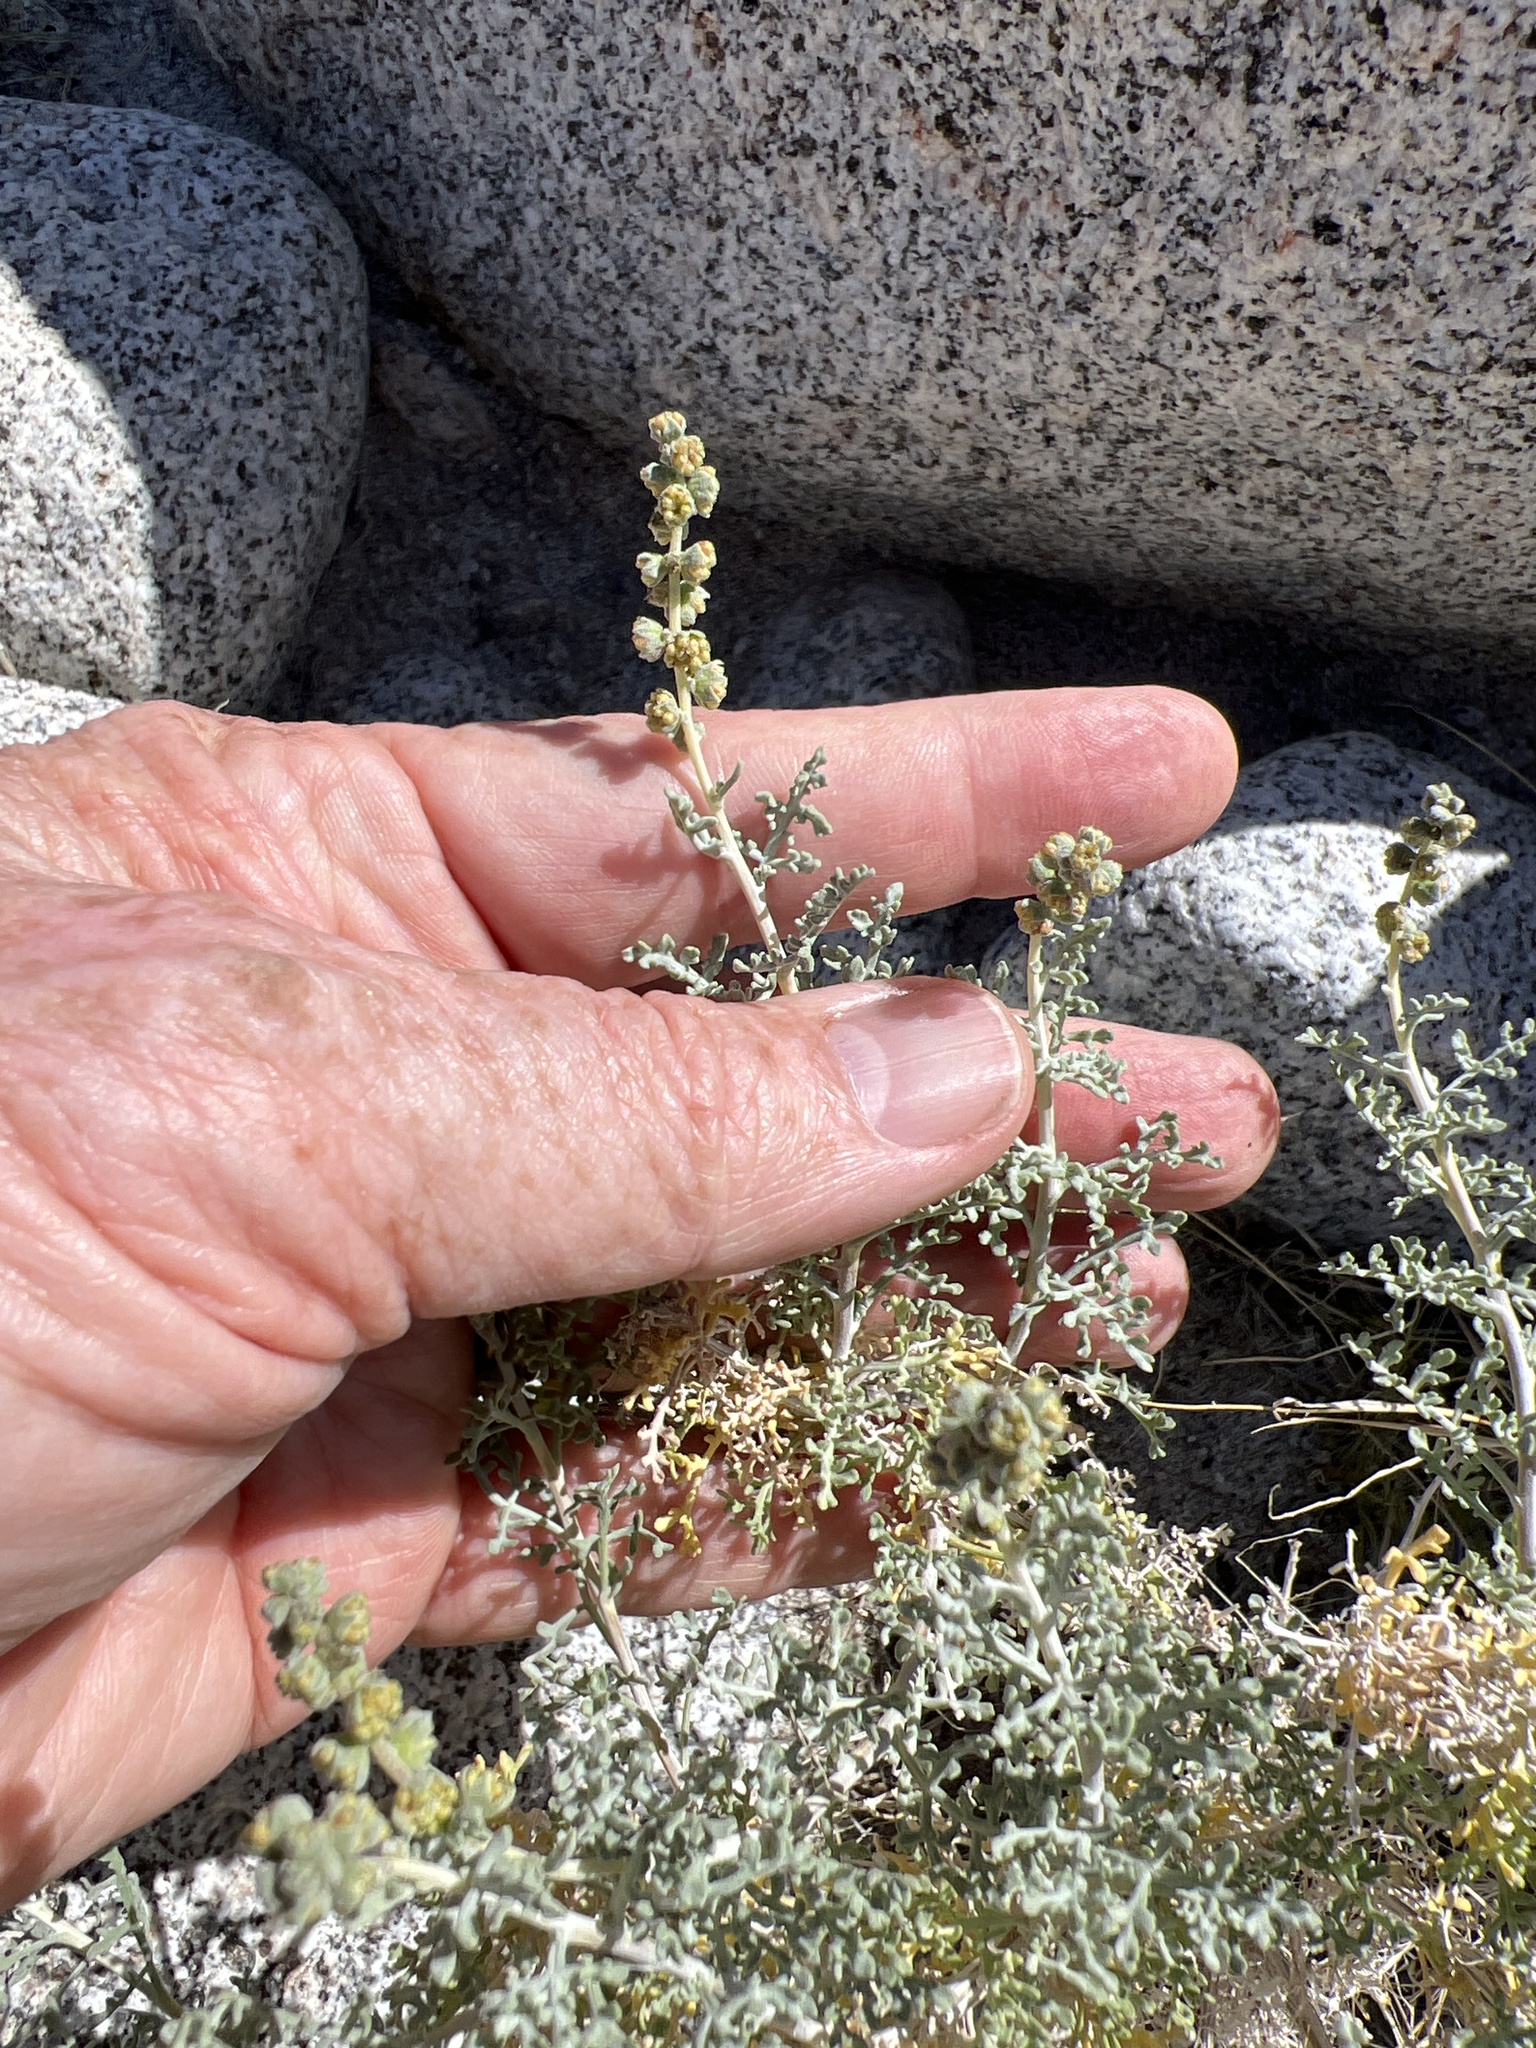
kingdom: Plantae
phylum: Tracheophyta
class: Magnoliopsida
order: Asterales
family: Asteraceae
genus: Ambrosia
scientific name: Ambrosia dumosa
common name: Bur-sage
